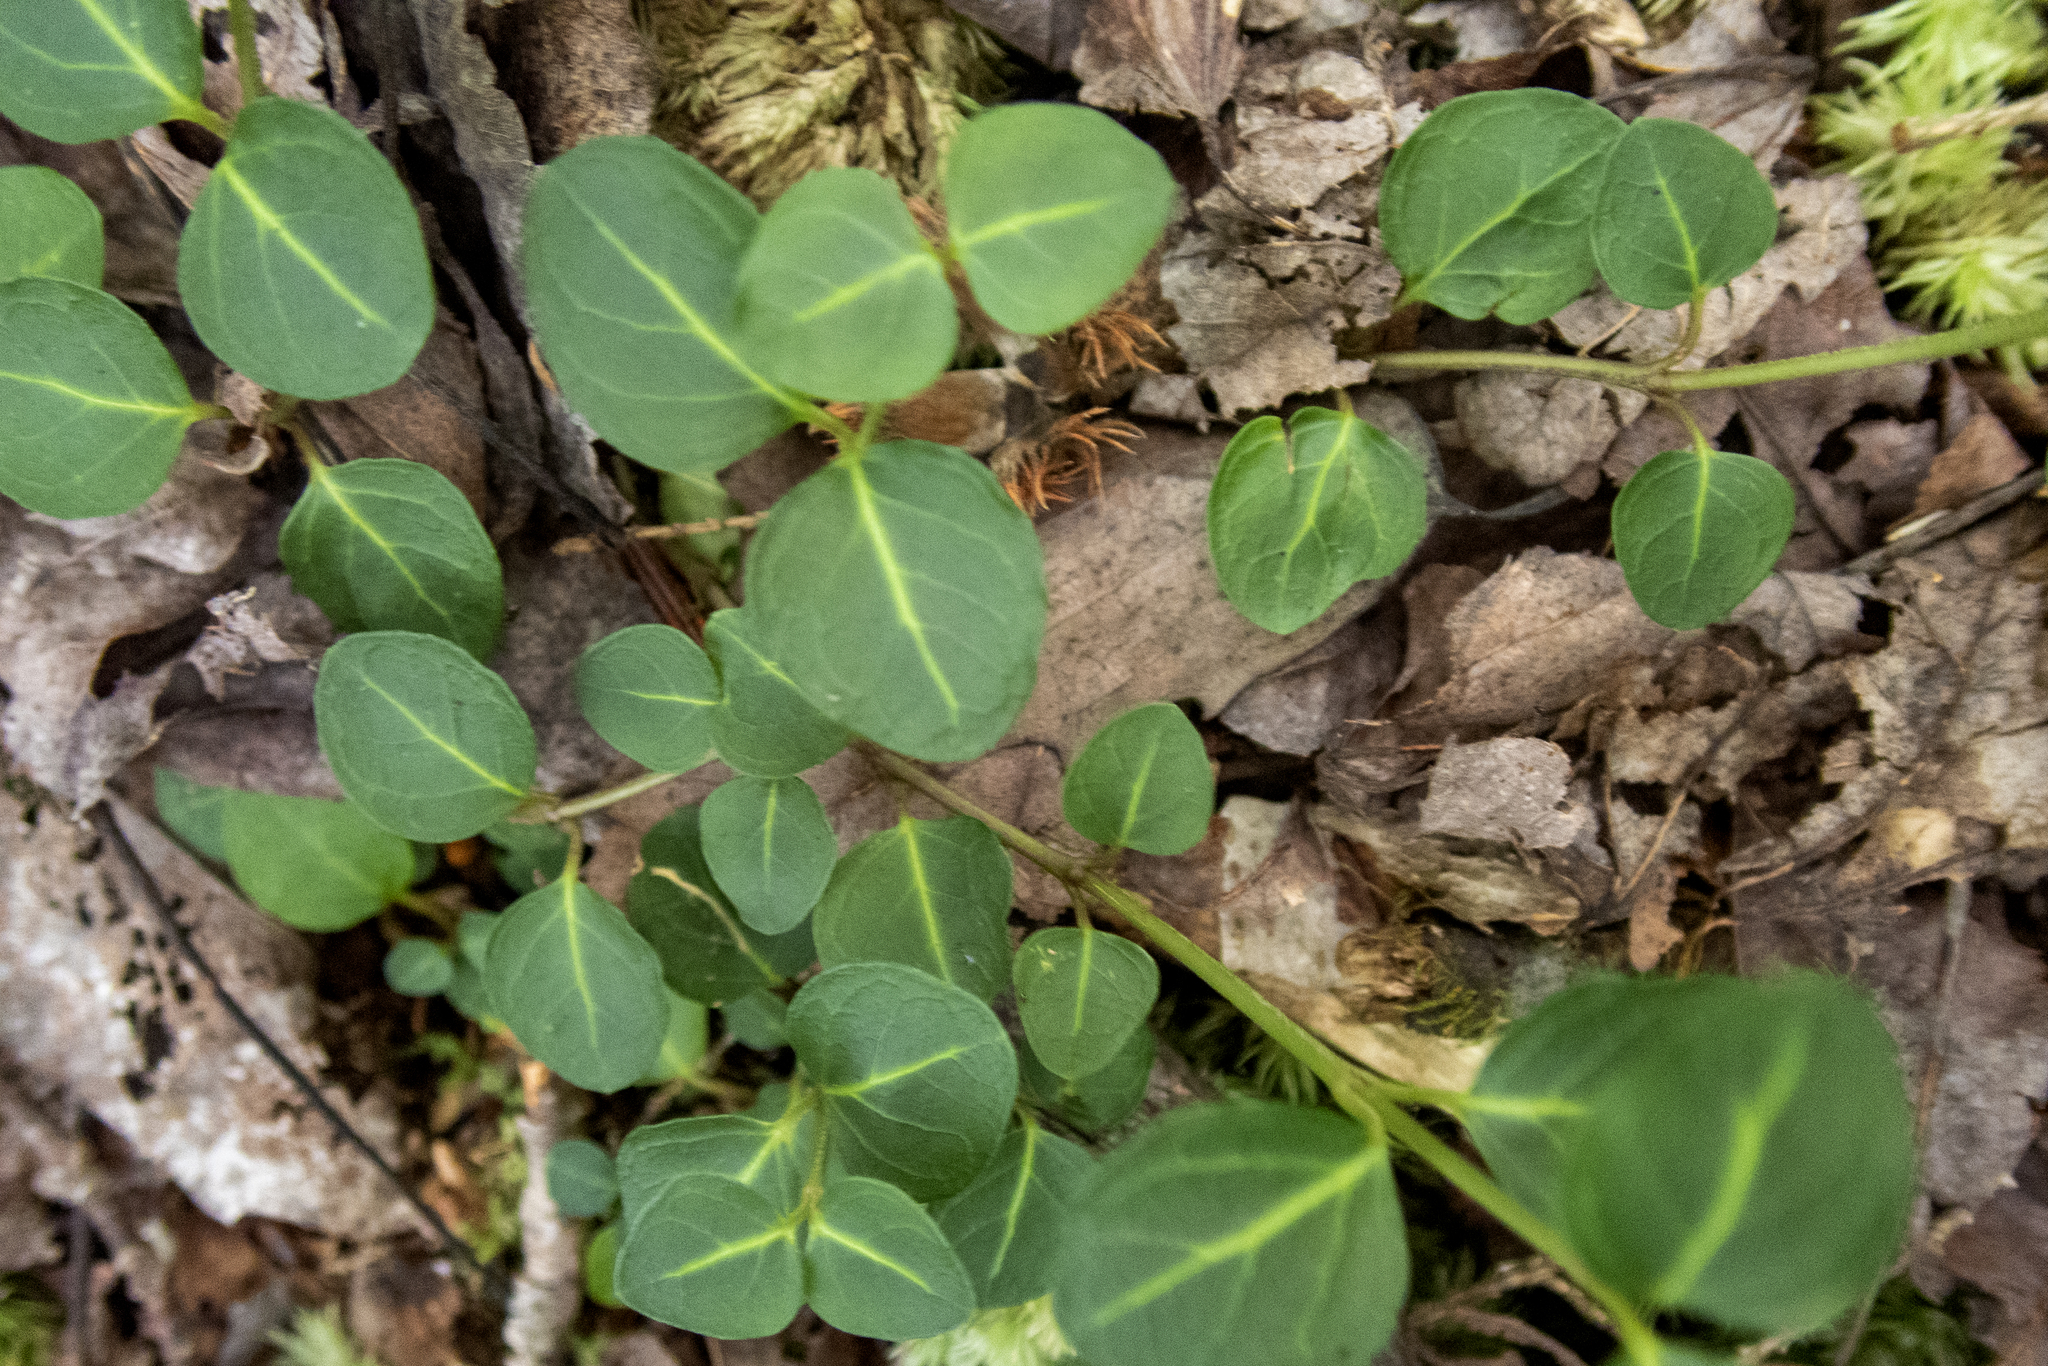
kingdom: Plantae
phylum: Tracheophyta
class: Magnoliopsida
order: Gentianales
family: Rubiaceae
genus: Mitchella
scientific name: Mitchella repens
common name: Partridge-berry
